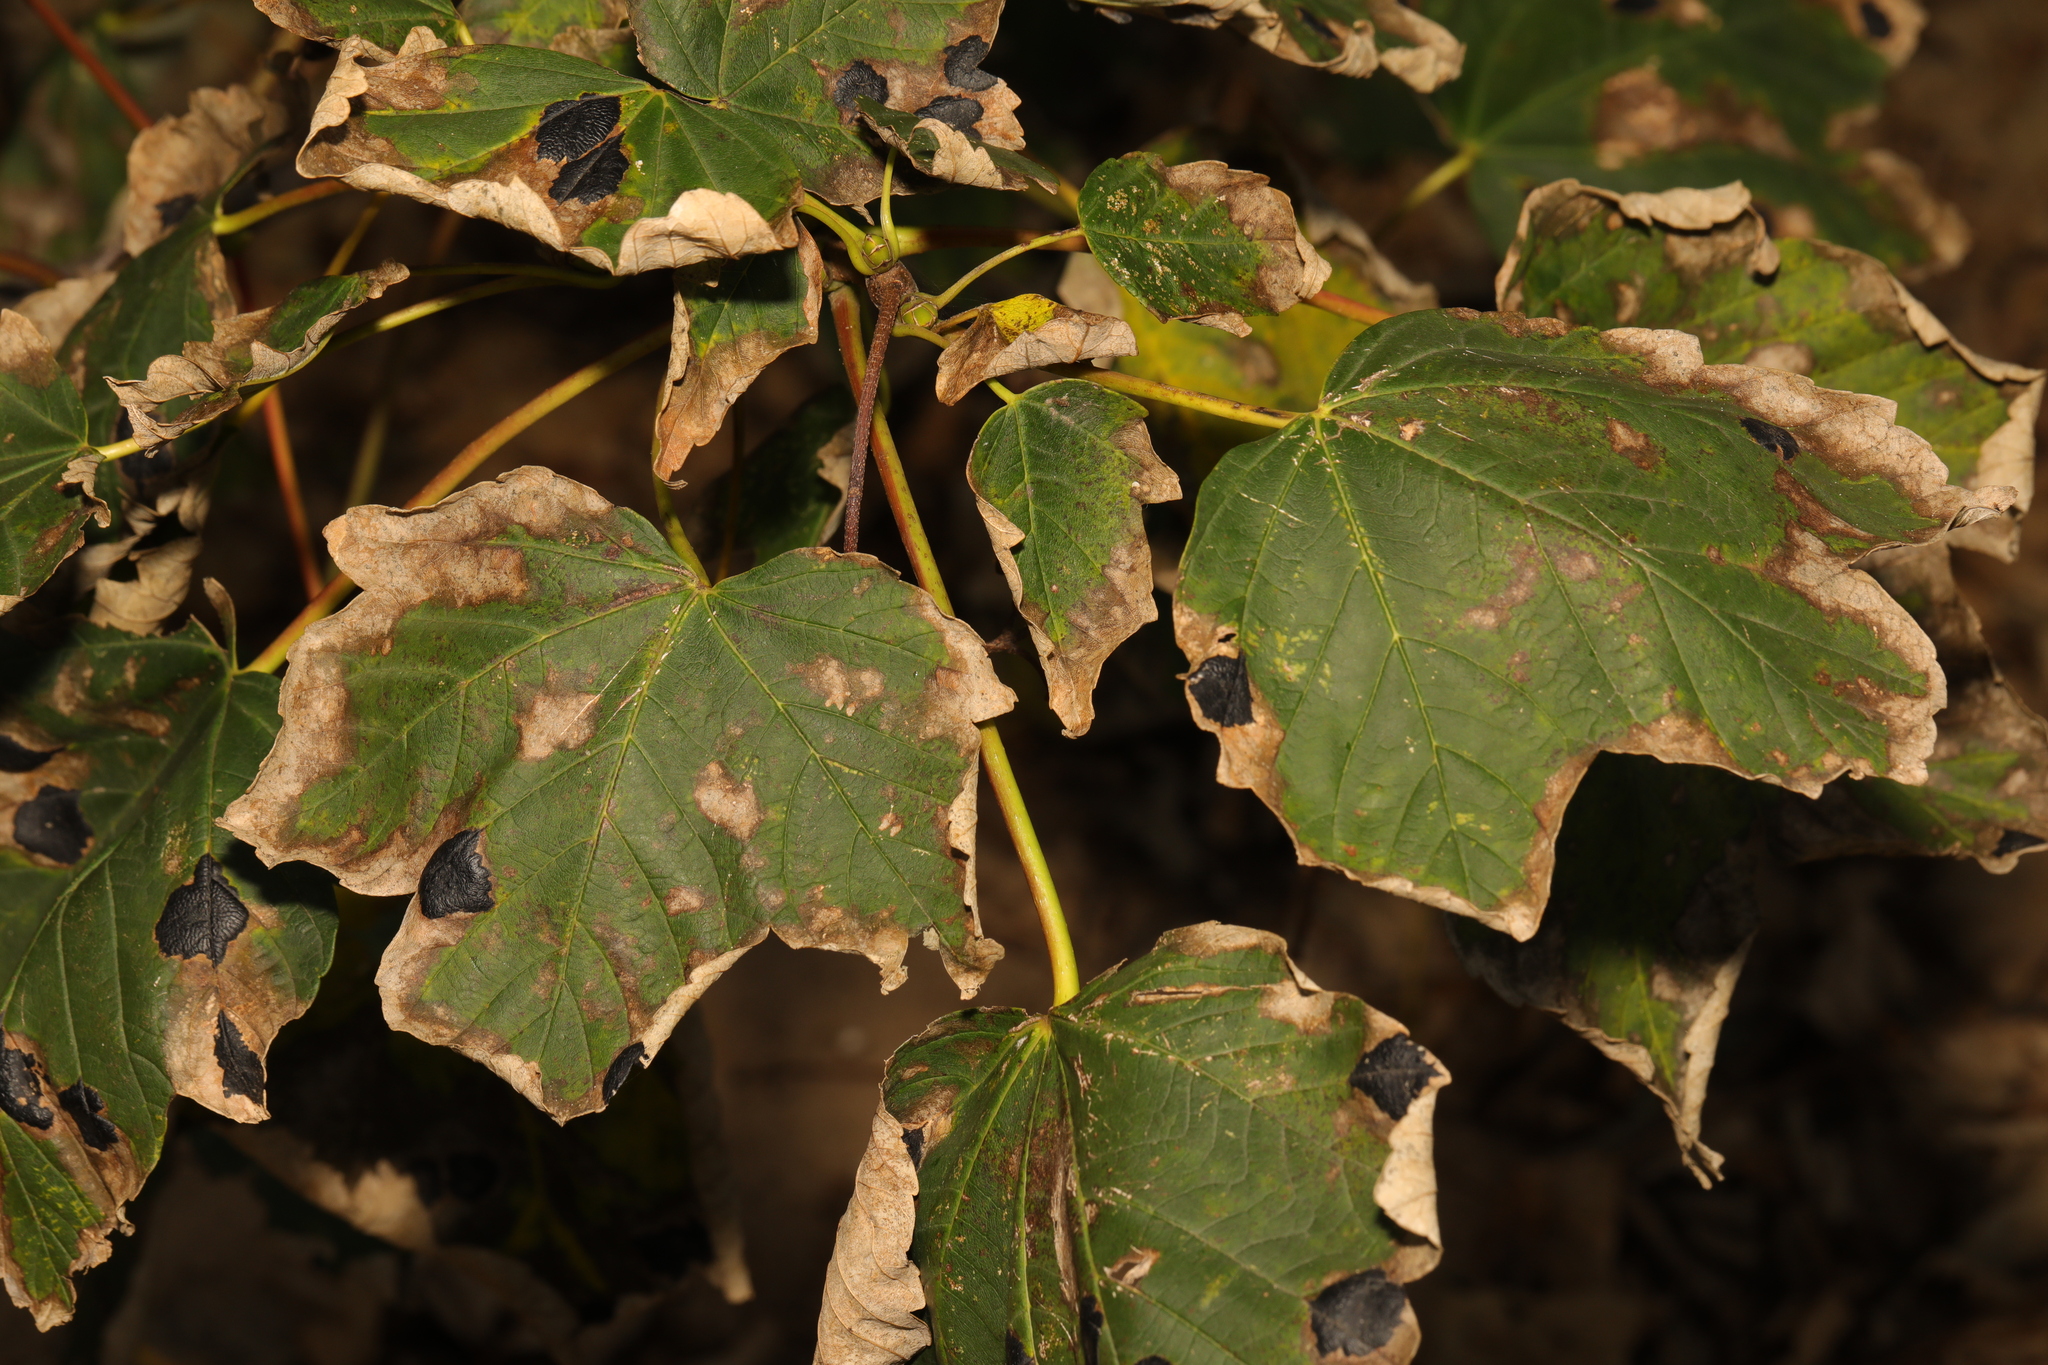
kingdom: Plantae
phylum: Tracheophyta
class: Magnoliopsida
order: Sapindales
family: Sapindaceae
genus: Acer
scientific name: Acer pseudoplatanus
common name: Sycamore
